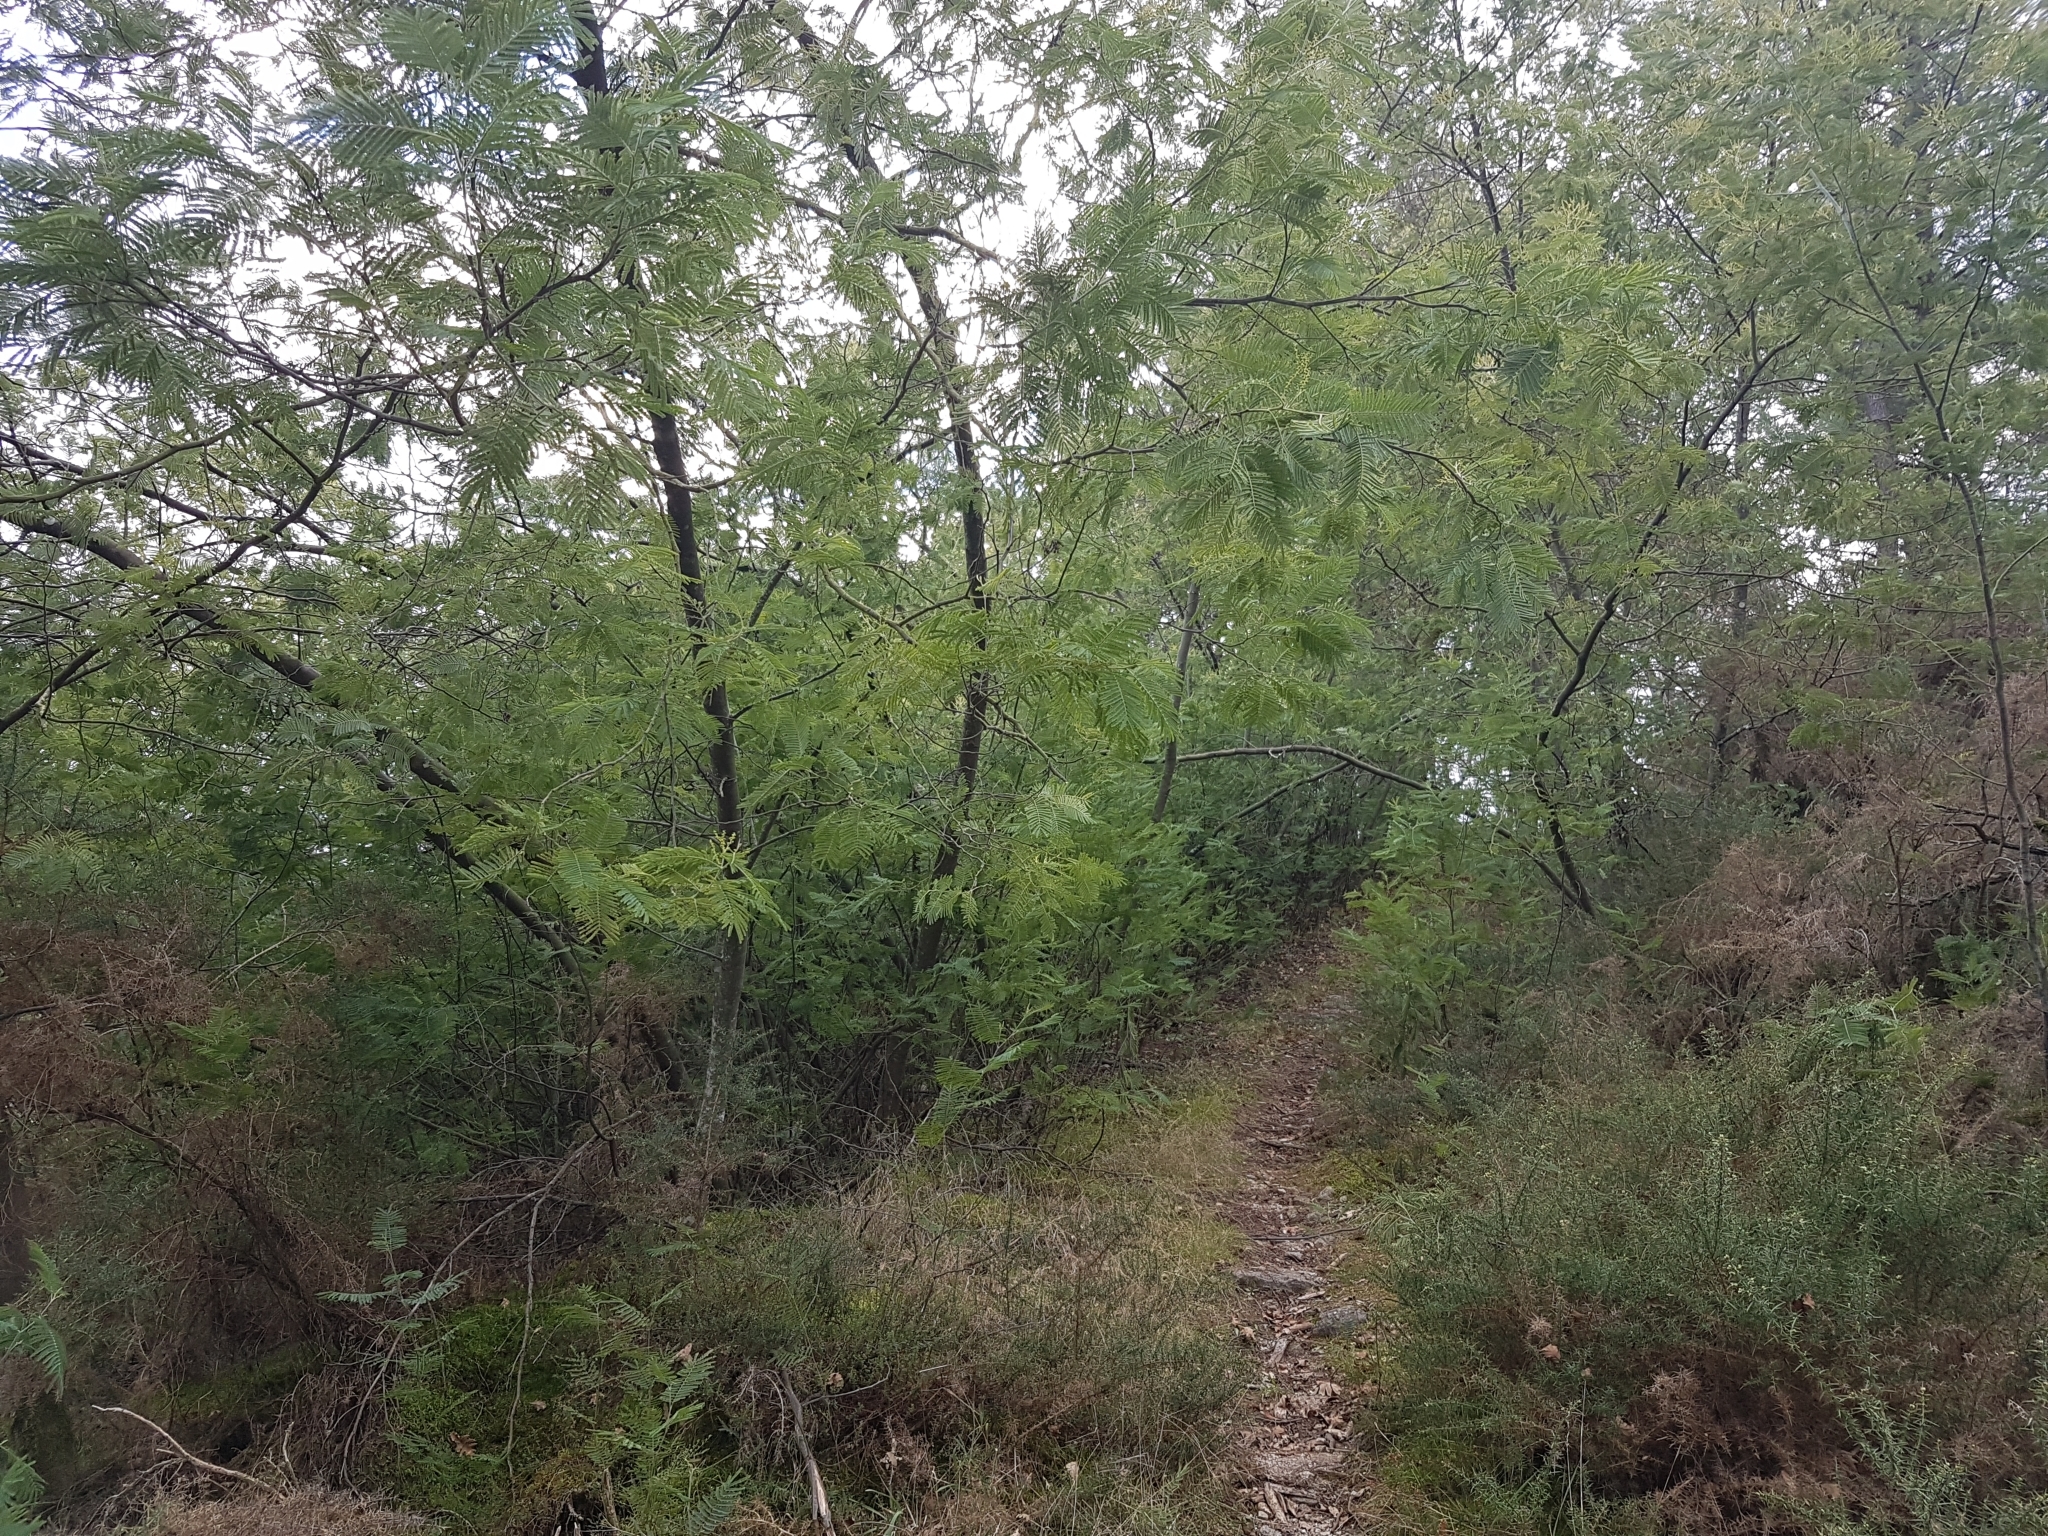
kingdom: Plantae
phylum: Tracheophyta
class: Magnoliopsida
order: Fabales
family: Fabaceae
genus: Acacia
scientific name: Acacia dealbata
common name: Silver wattle
